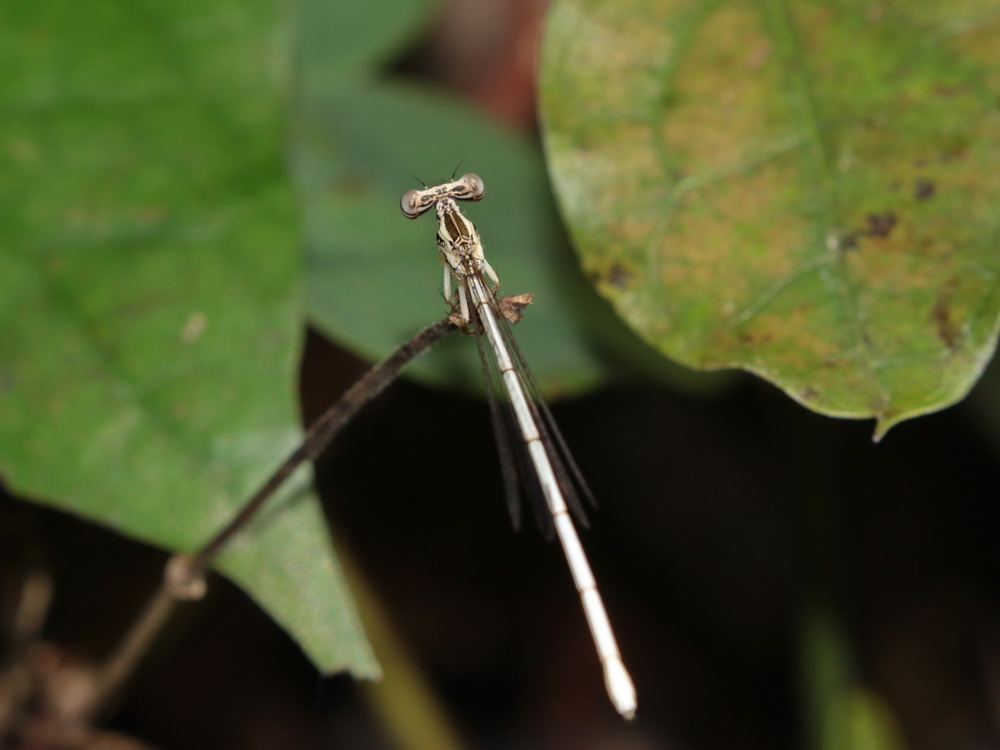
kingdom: Animalia
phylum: Arthropoda
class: Insecta
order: Odonata
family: Platycnemididae
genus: Copera
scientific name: Copera marginipes
